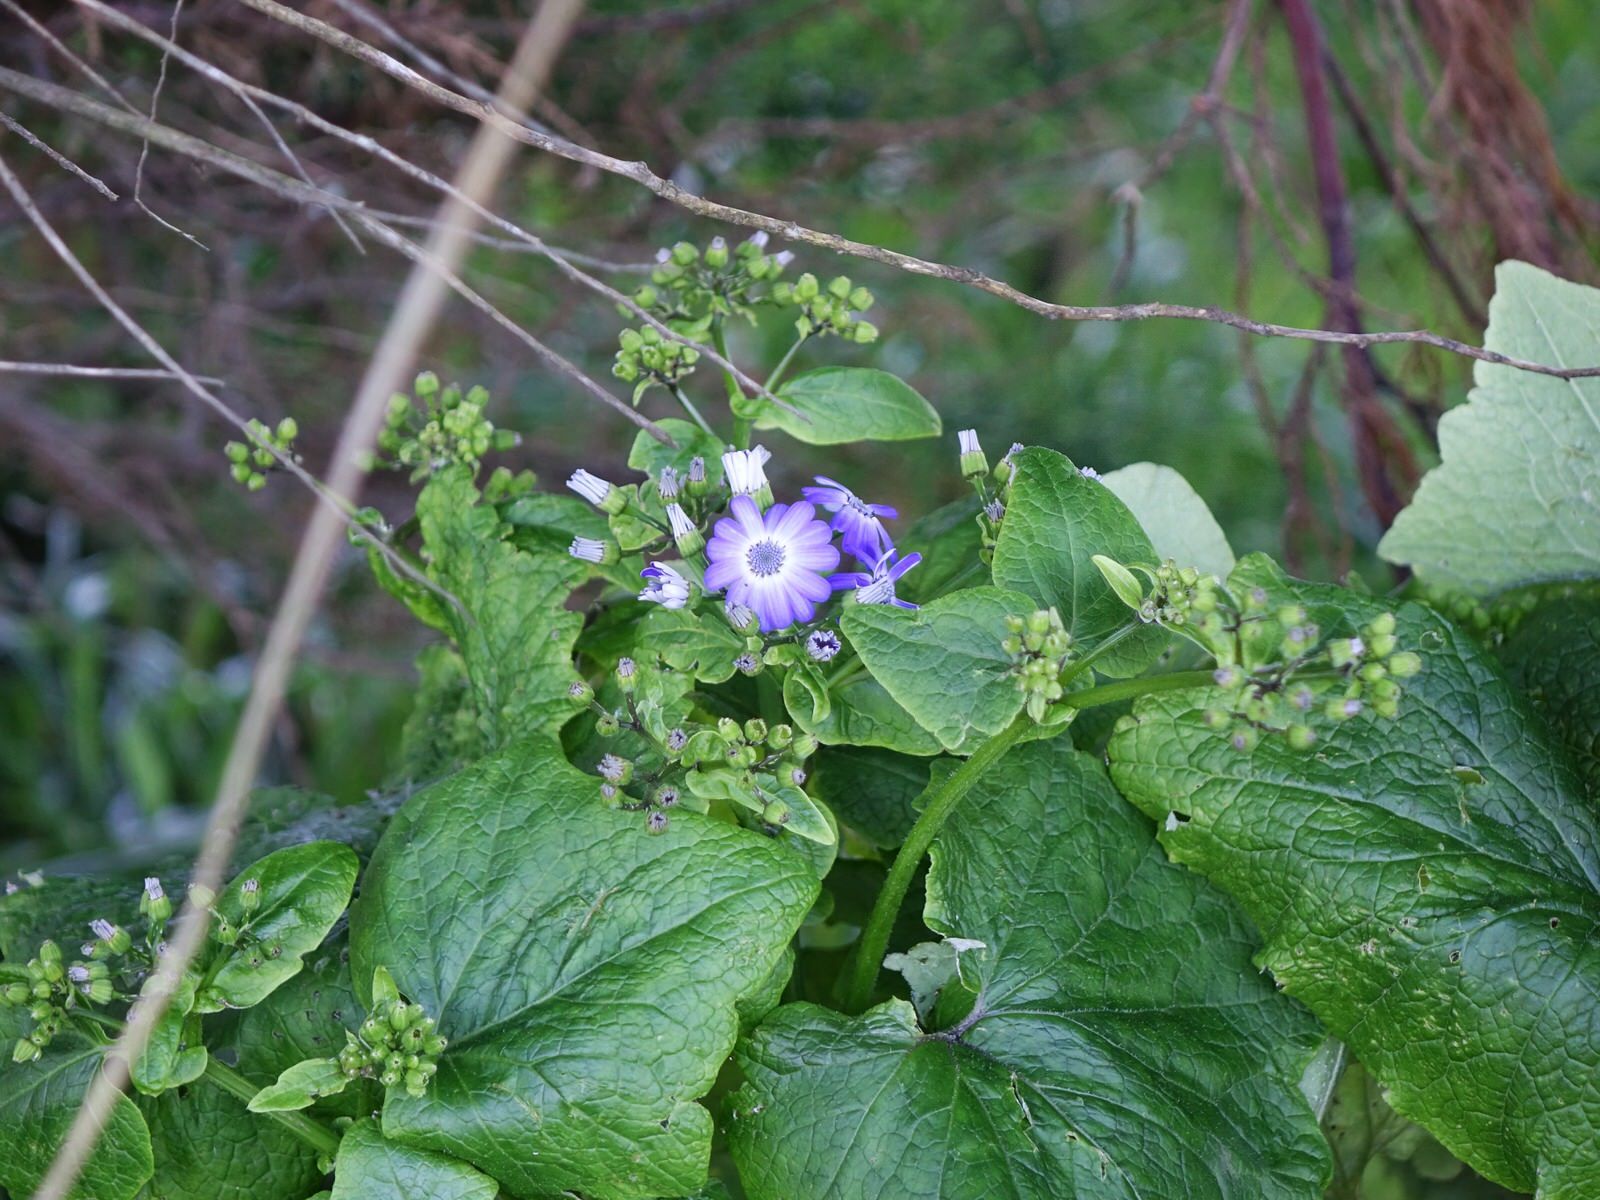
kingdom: Plantae
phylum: Tracheophyta
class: Magnoliopsida
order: Asterales
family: Asteraceae
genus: Pericallis
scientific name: Pericallis hybrida
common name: Cineraria
